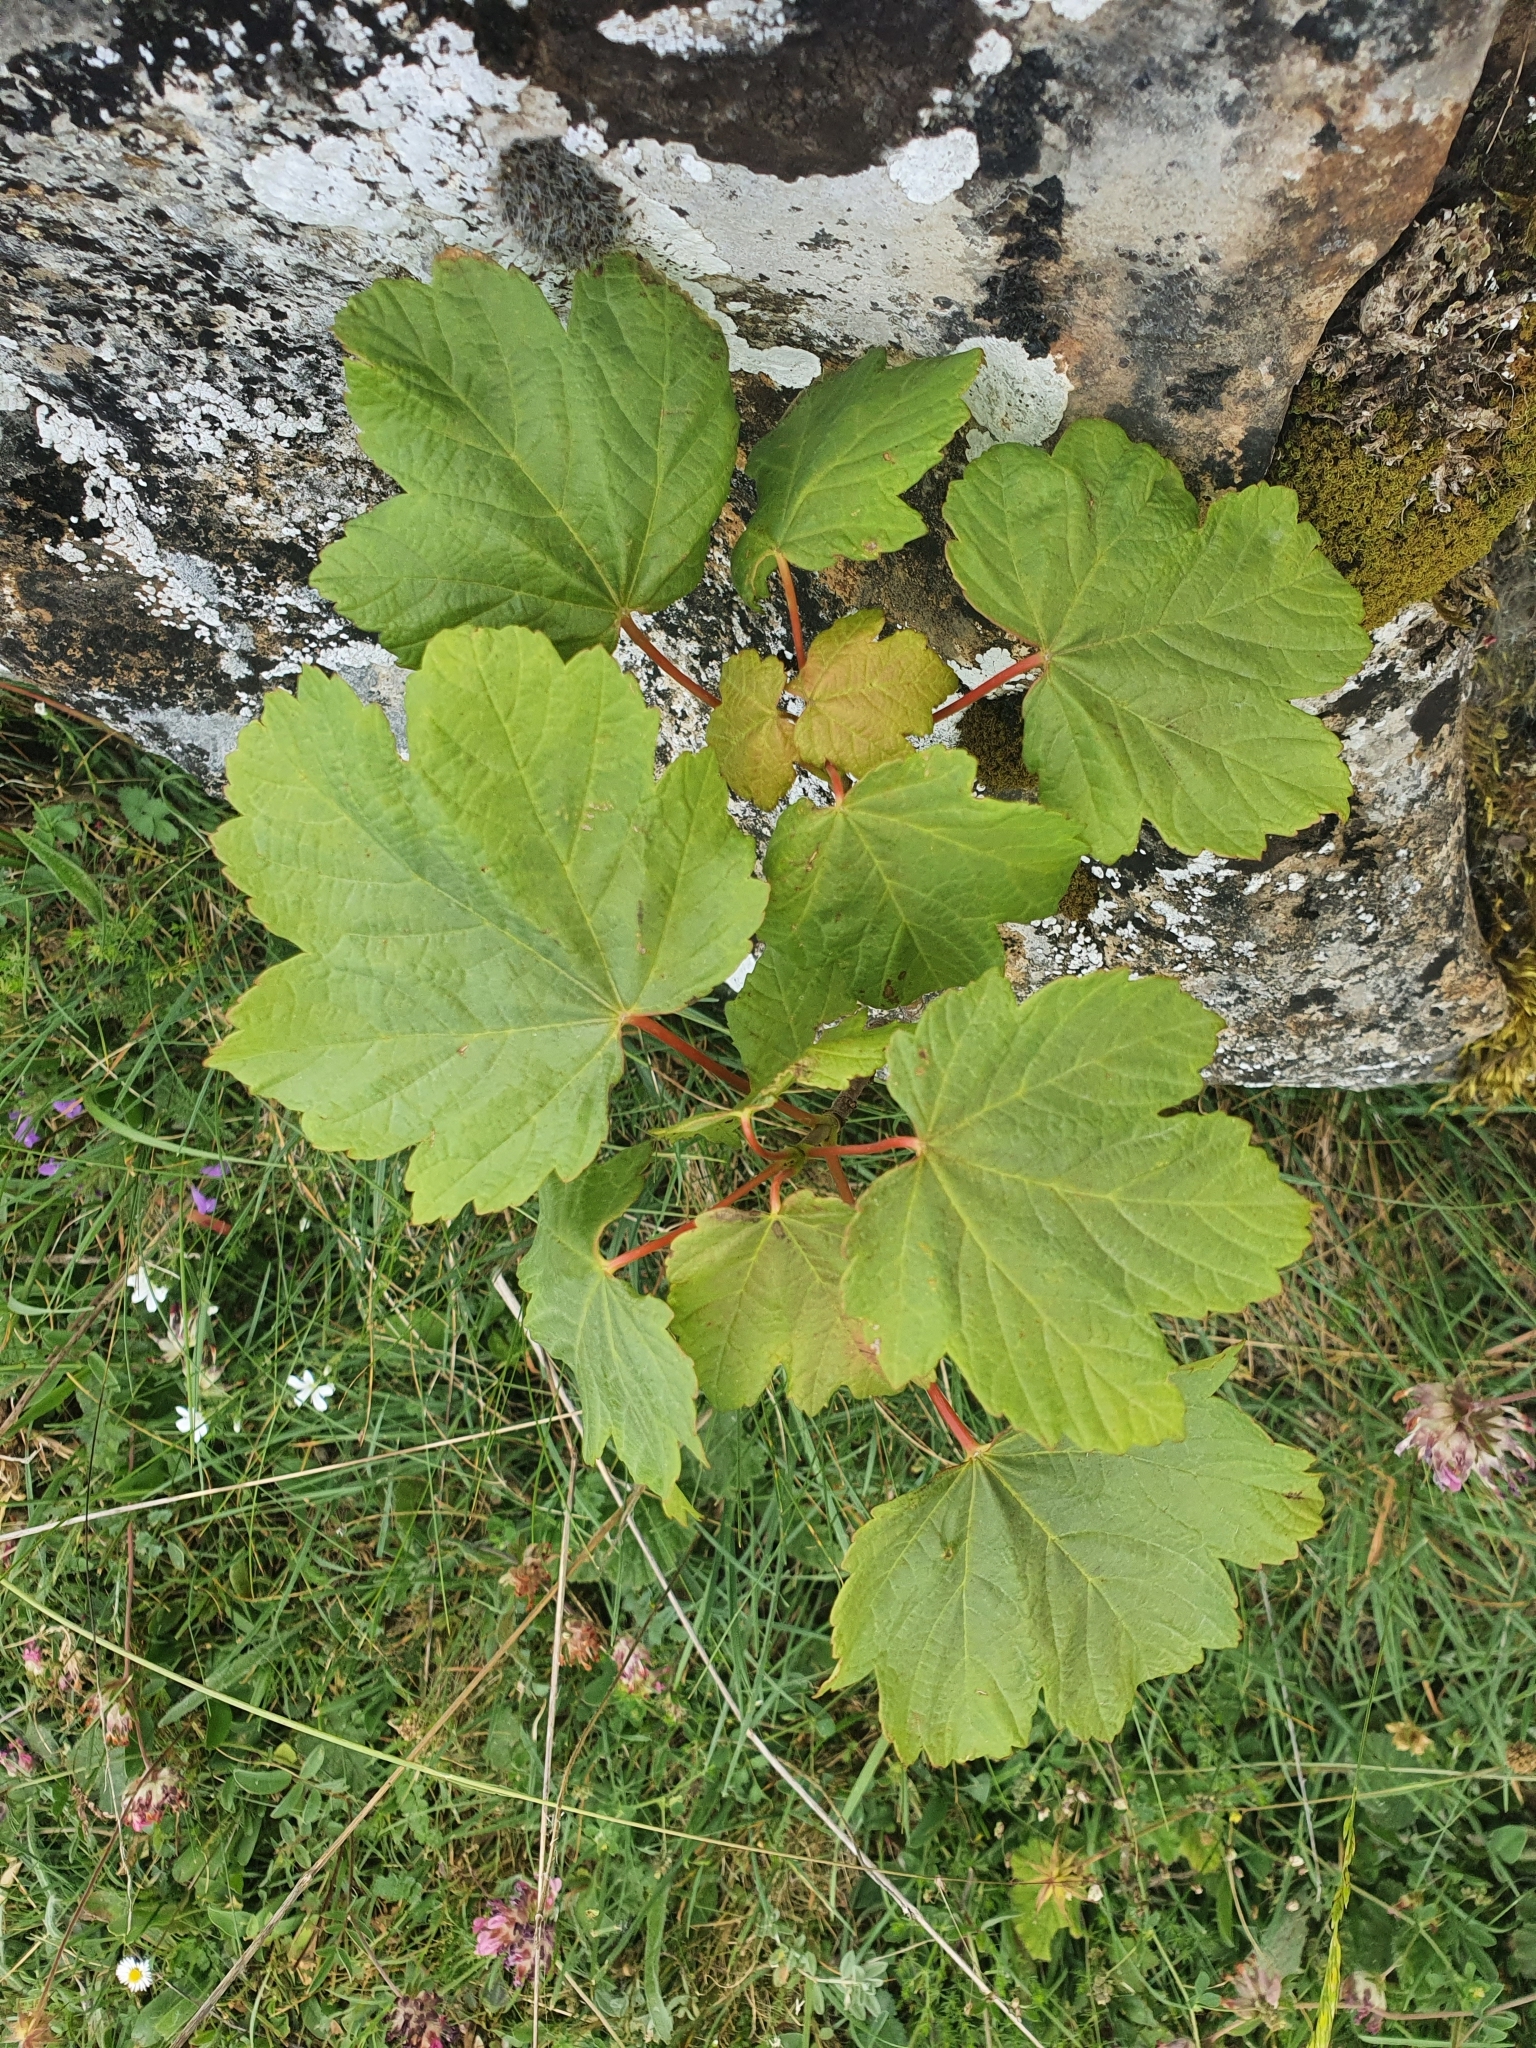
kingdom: Plantae
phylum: Tracheophyta
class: Magnoliopsida
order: Sapindales
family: Sapindaceae
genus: Acer
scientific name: Acer pseudoplatanus
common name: Sycamore
